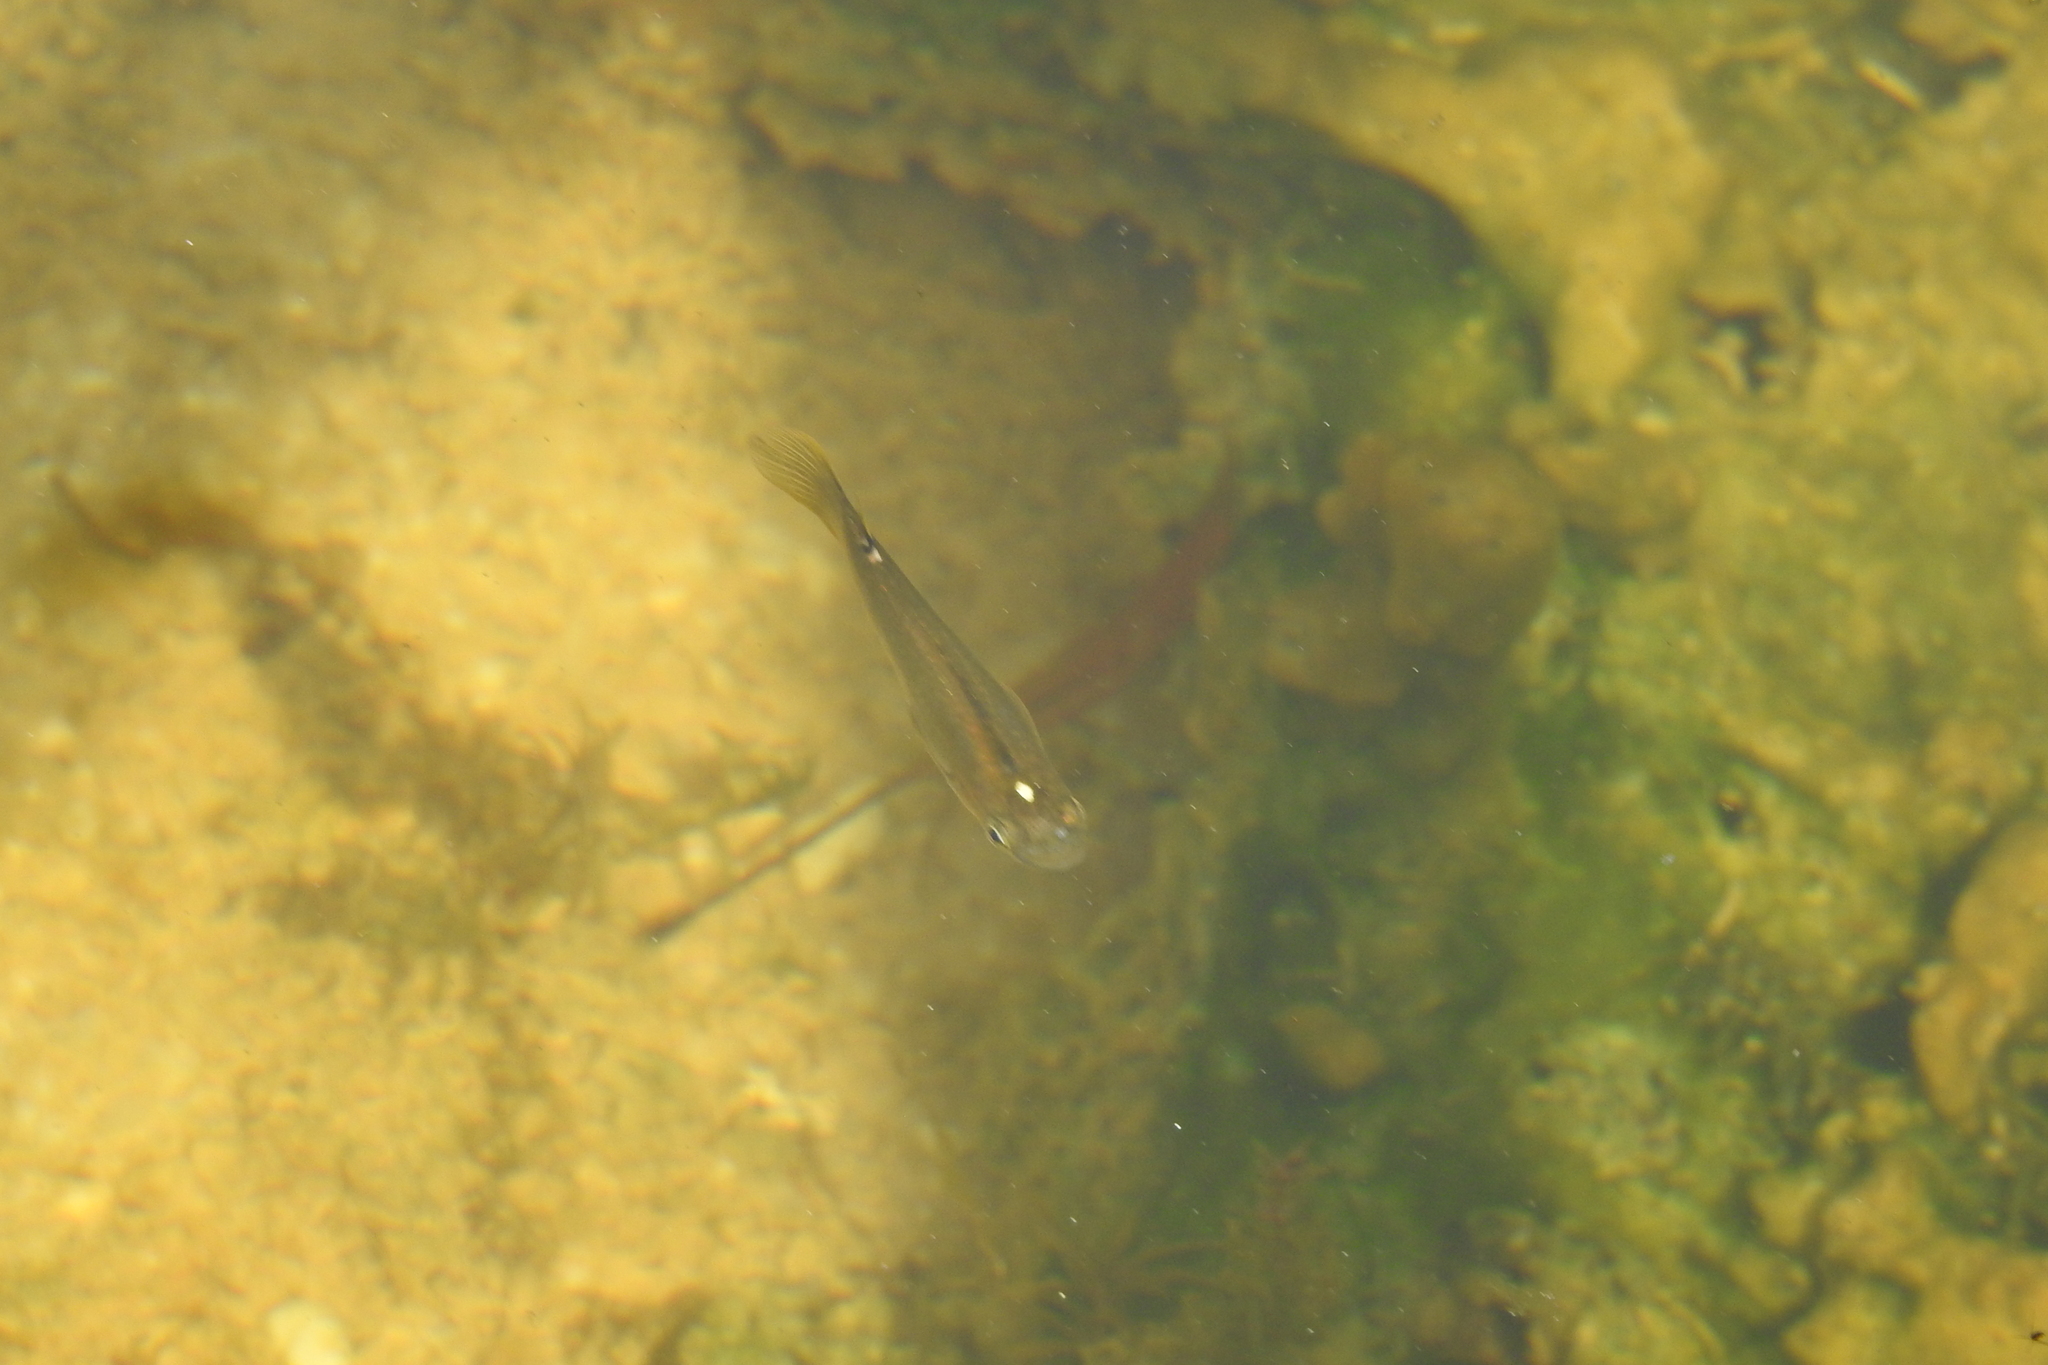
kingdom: Animalia
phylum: Chordata
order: Cyprinodontiformes
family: Aplocheilidae
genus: Aplocheilus
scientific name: Aplocheilus panchax
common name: Blue panchax
